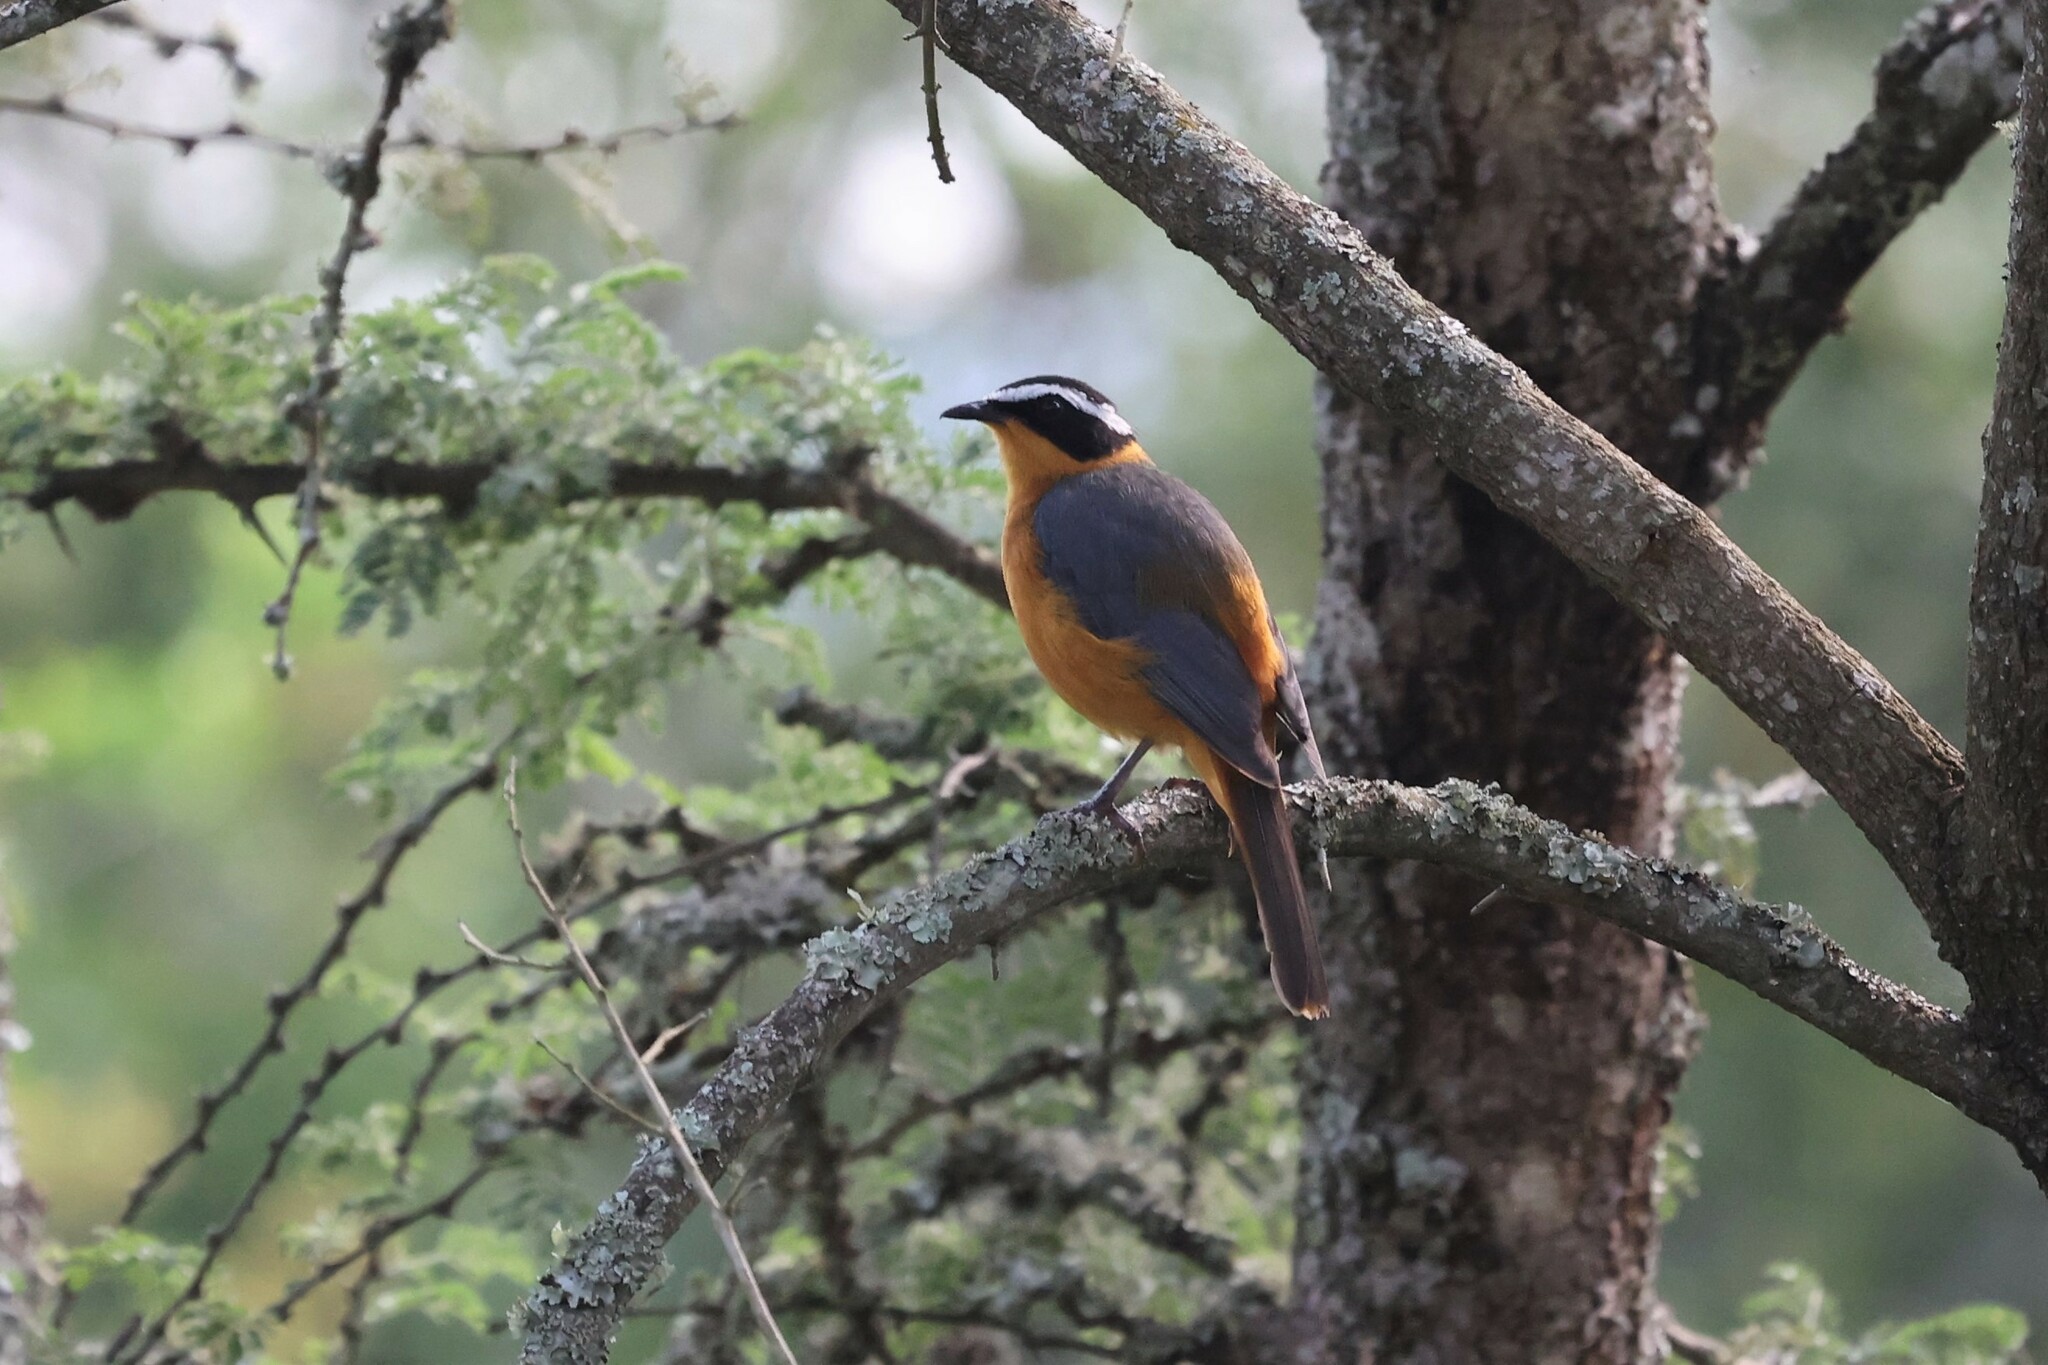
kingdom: Animalia
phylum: Chordata
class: Aves
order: Passeriformes
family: Muscicapidae
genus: Cossypha
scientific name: Cossypha heuglini
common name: White-browed robin-chat
